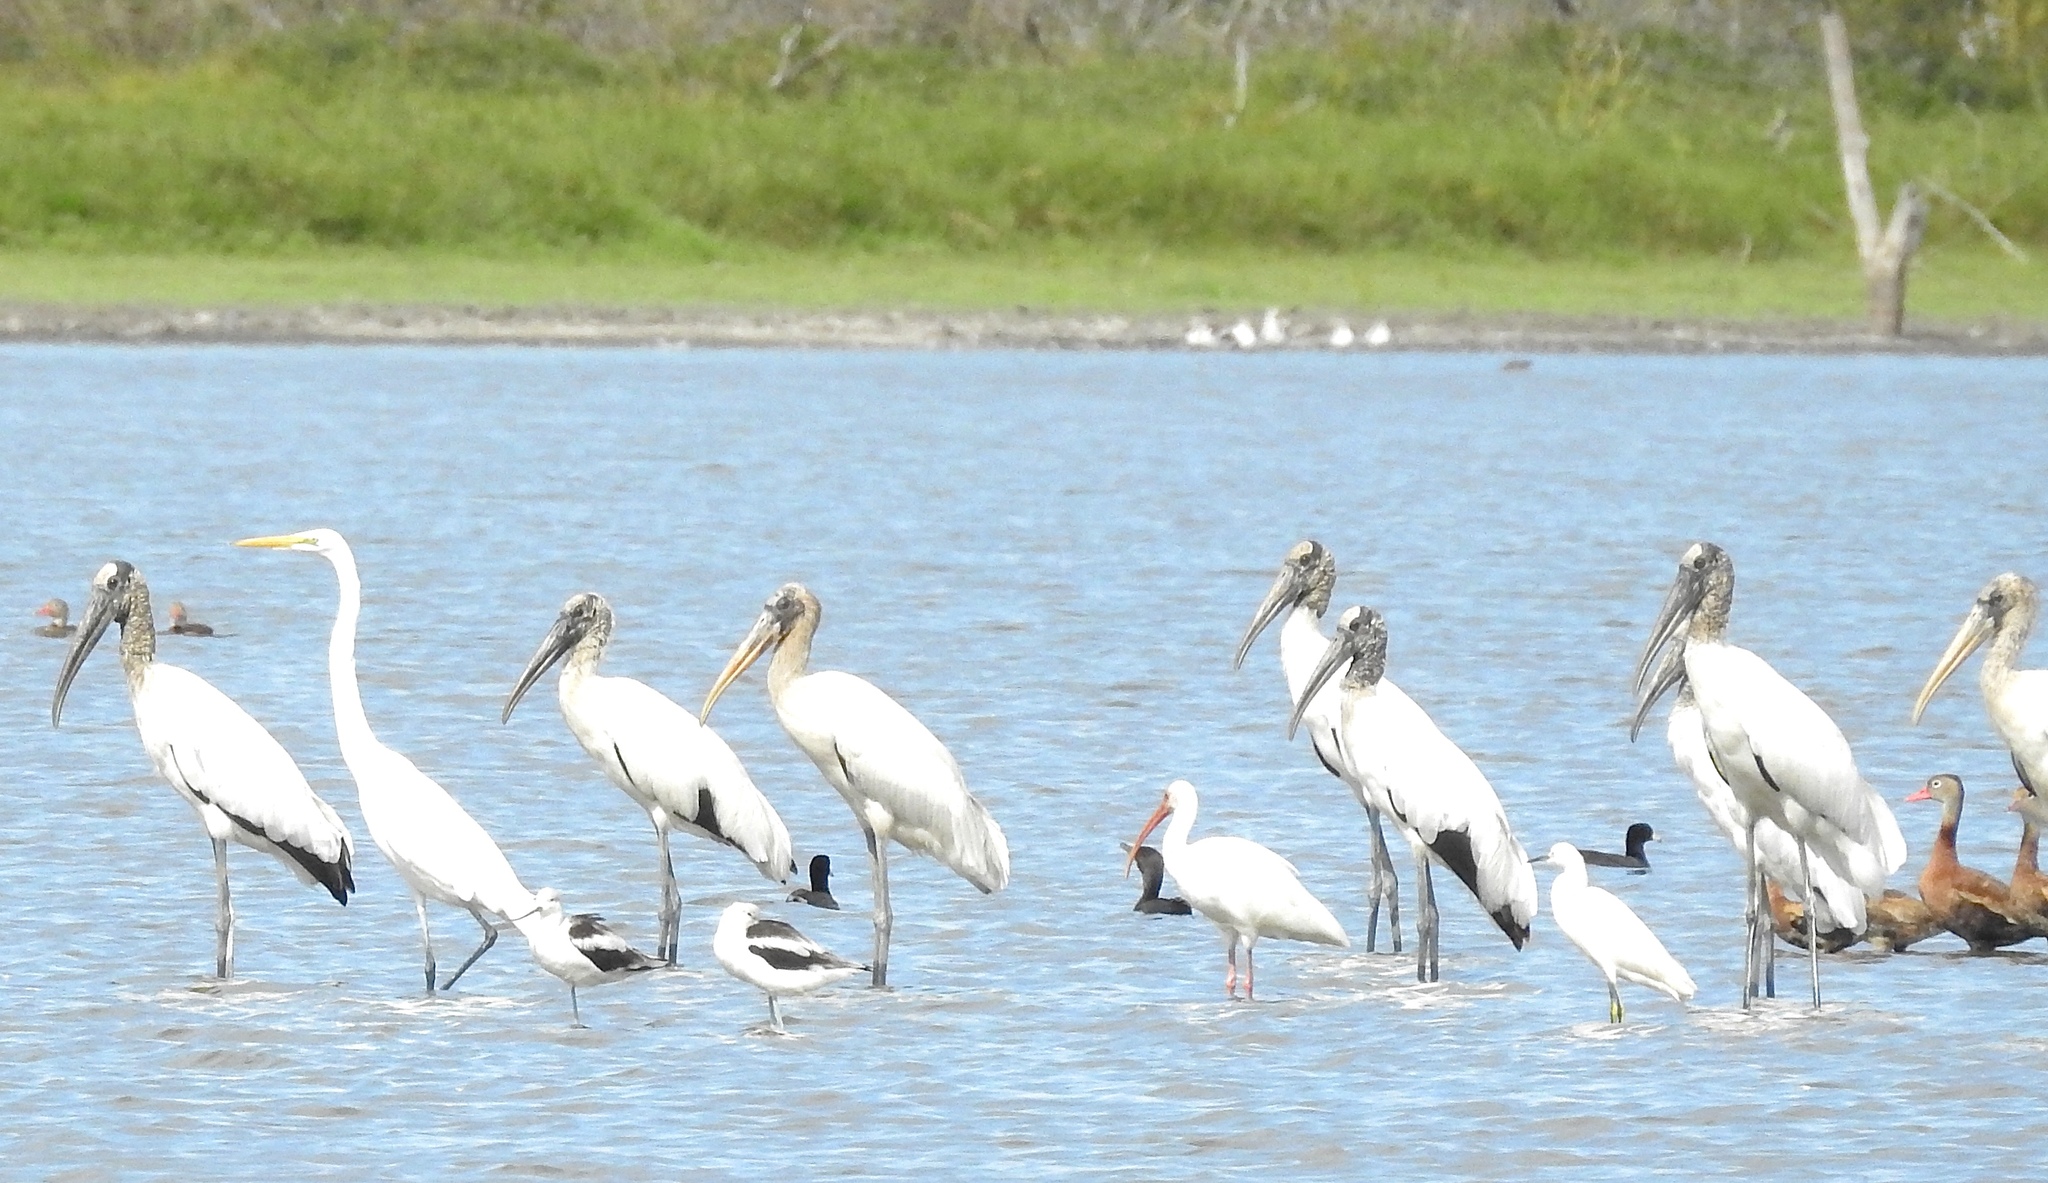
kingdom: Animalia
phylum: Chordata
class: Aves
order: Ciconiiformes
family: Ciconiidae
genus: Mycteria
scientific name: Mycteria americana
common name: Wood stork
